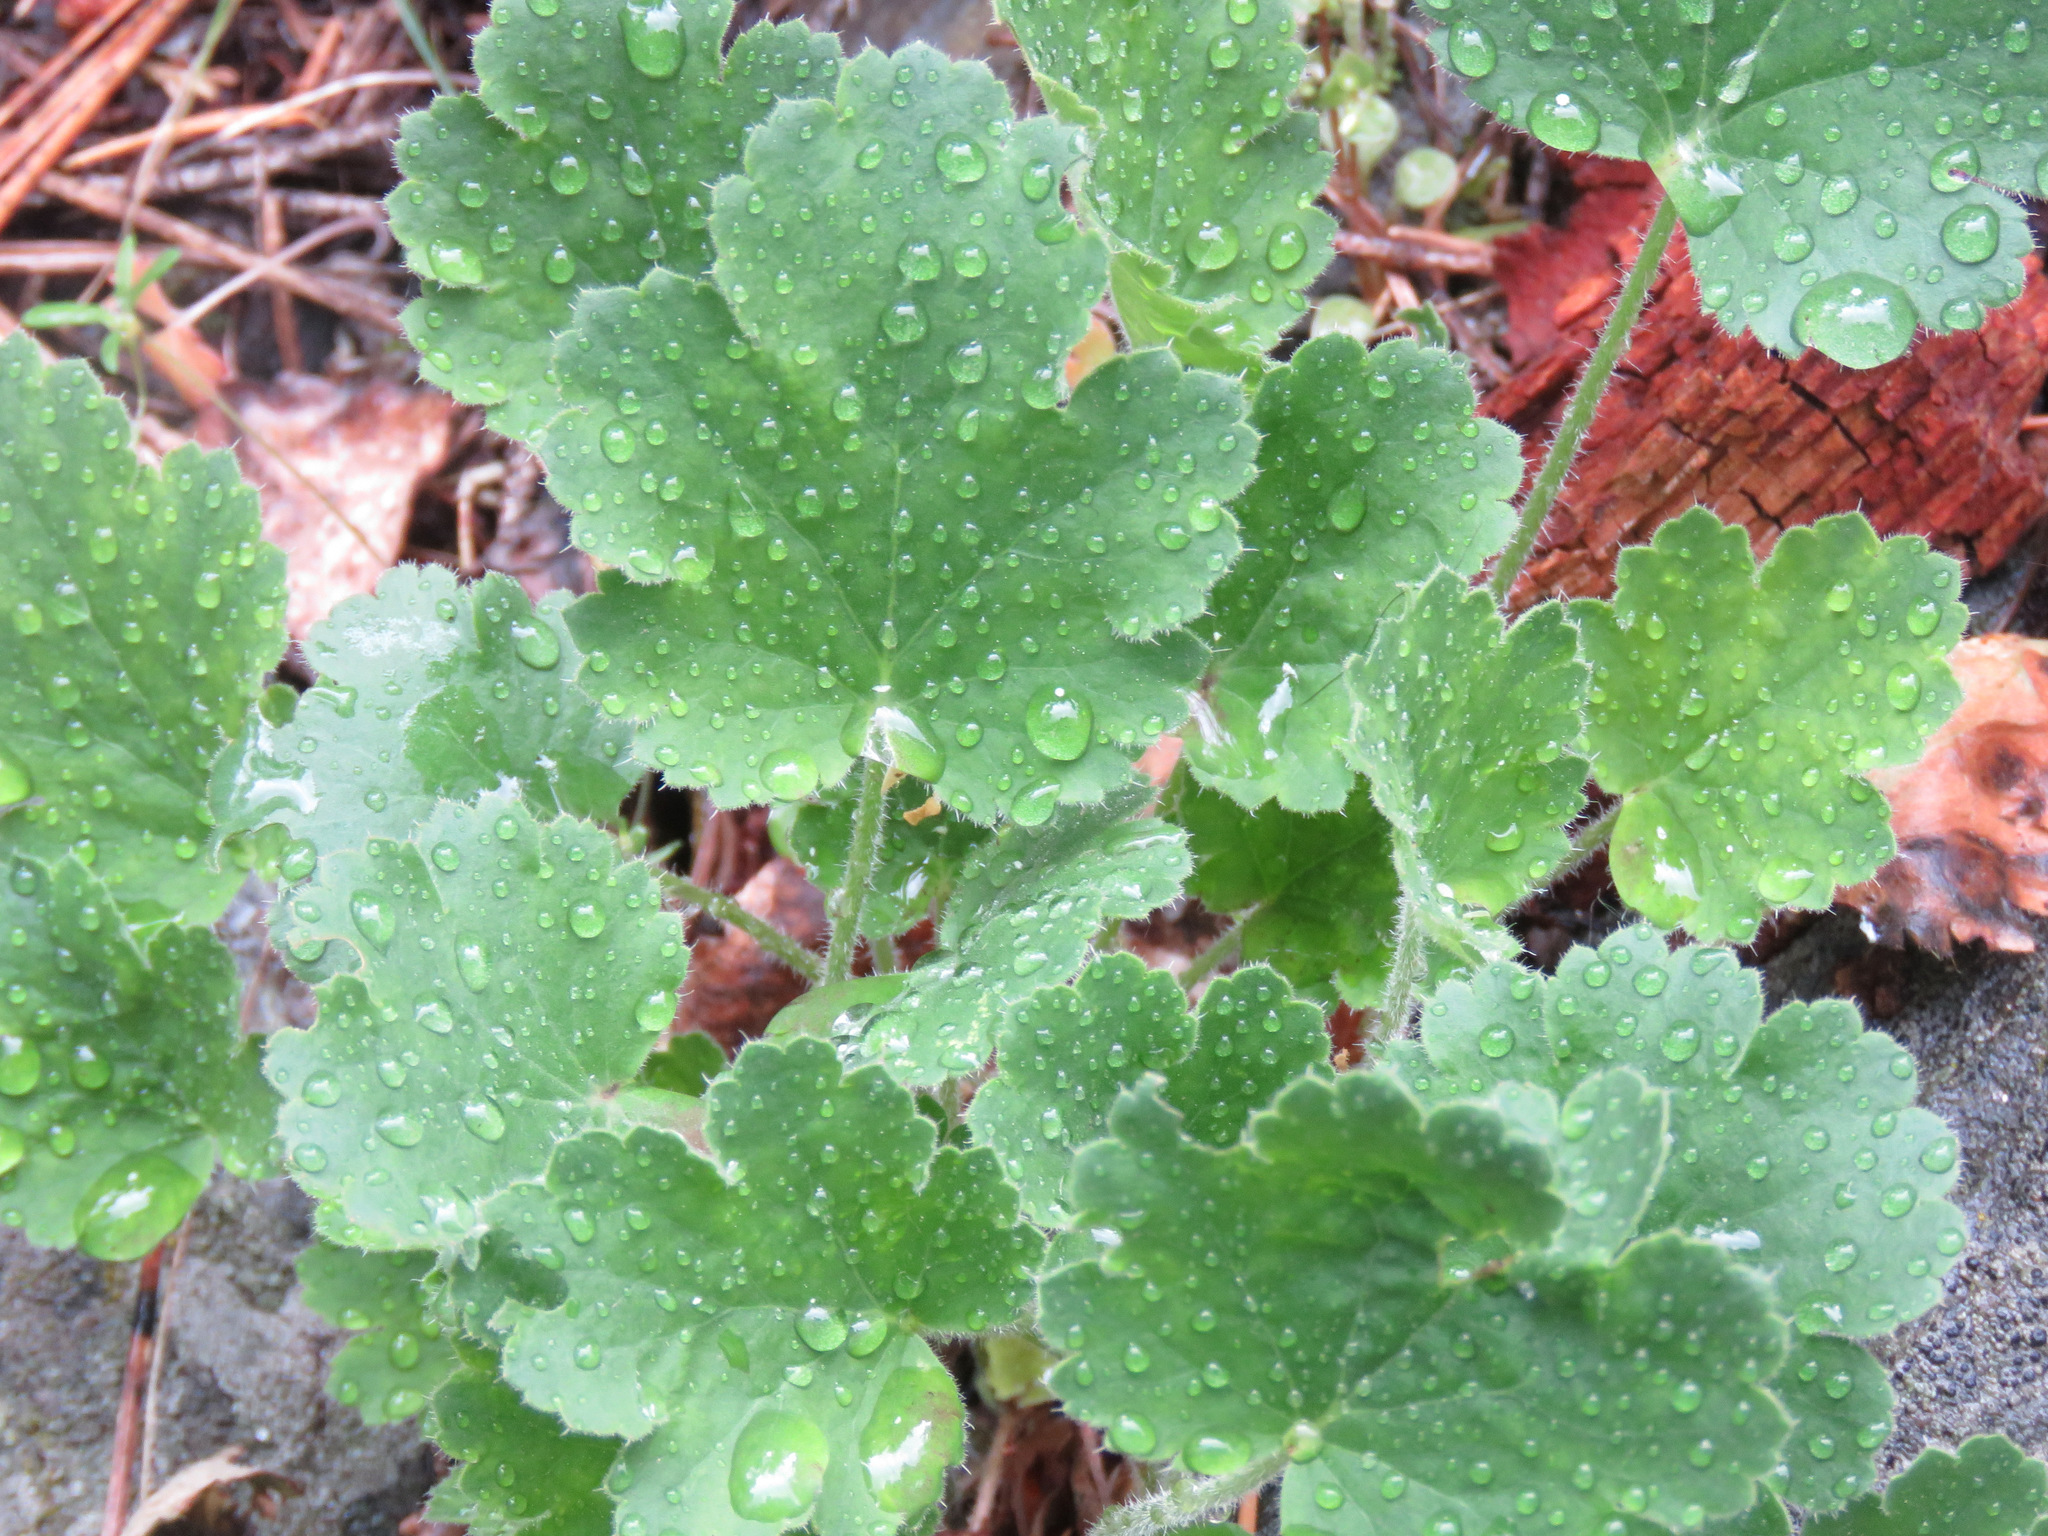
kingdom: Plantae
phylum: Tracheophyta
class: Magnoliopsida
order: Saxifragales
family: Saxifragaceae
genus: Heuchera
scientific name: Heuchera cylindrica
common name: Mat alumroot
